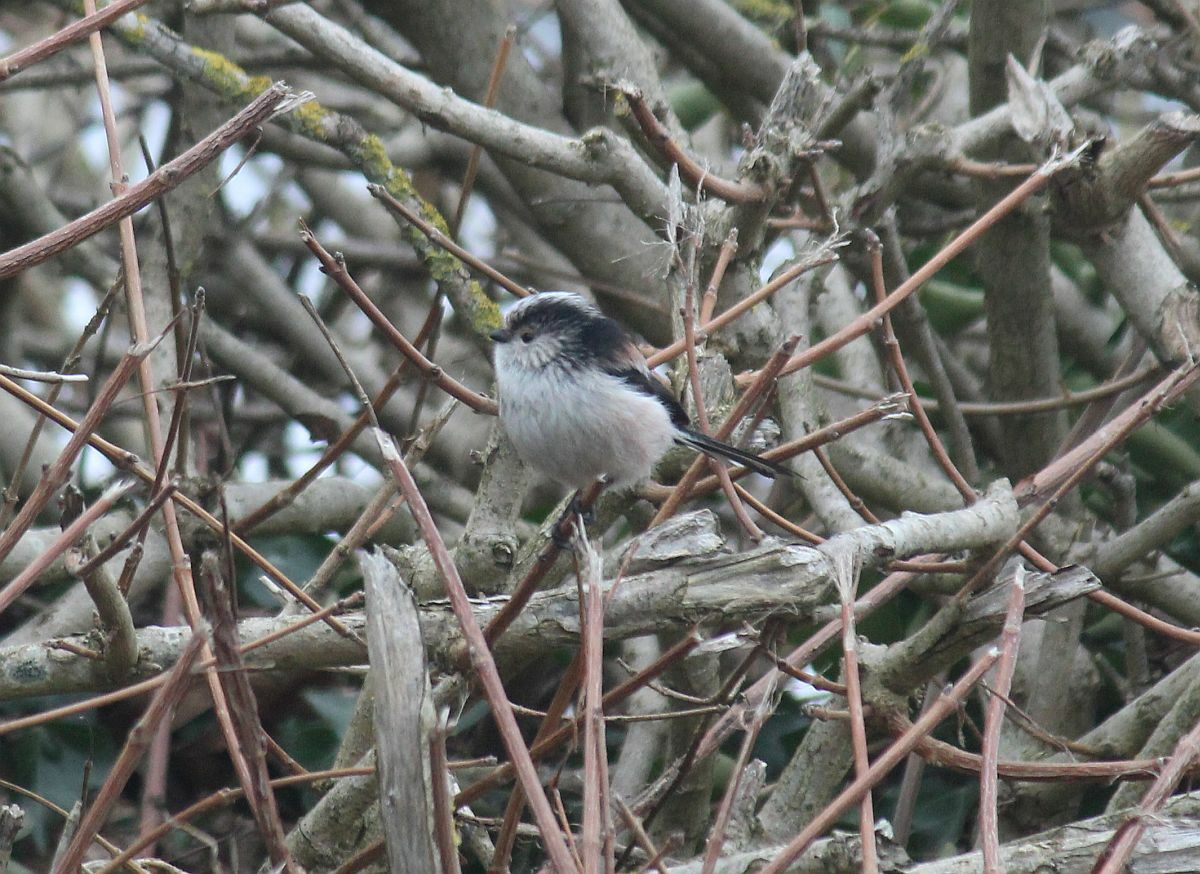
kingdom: Animalia
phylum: Chordata
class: Aves
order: Passeriformes
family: Aegithalidae
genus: Aegithalos
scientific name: Aegithalos caudatus
